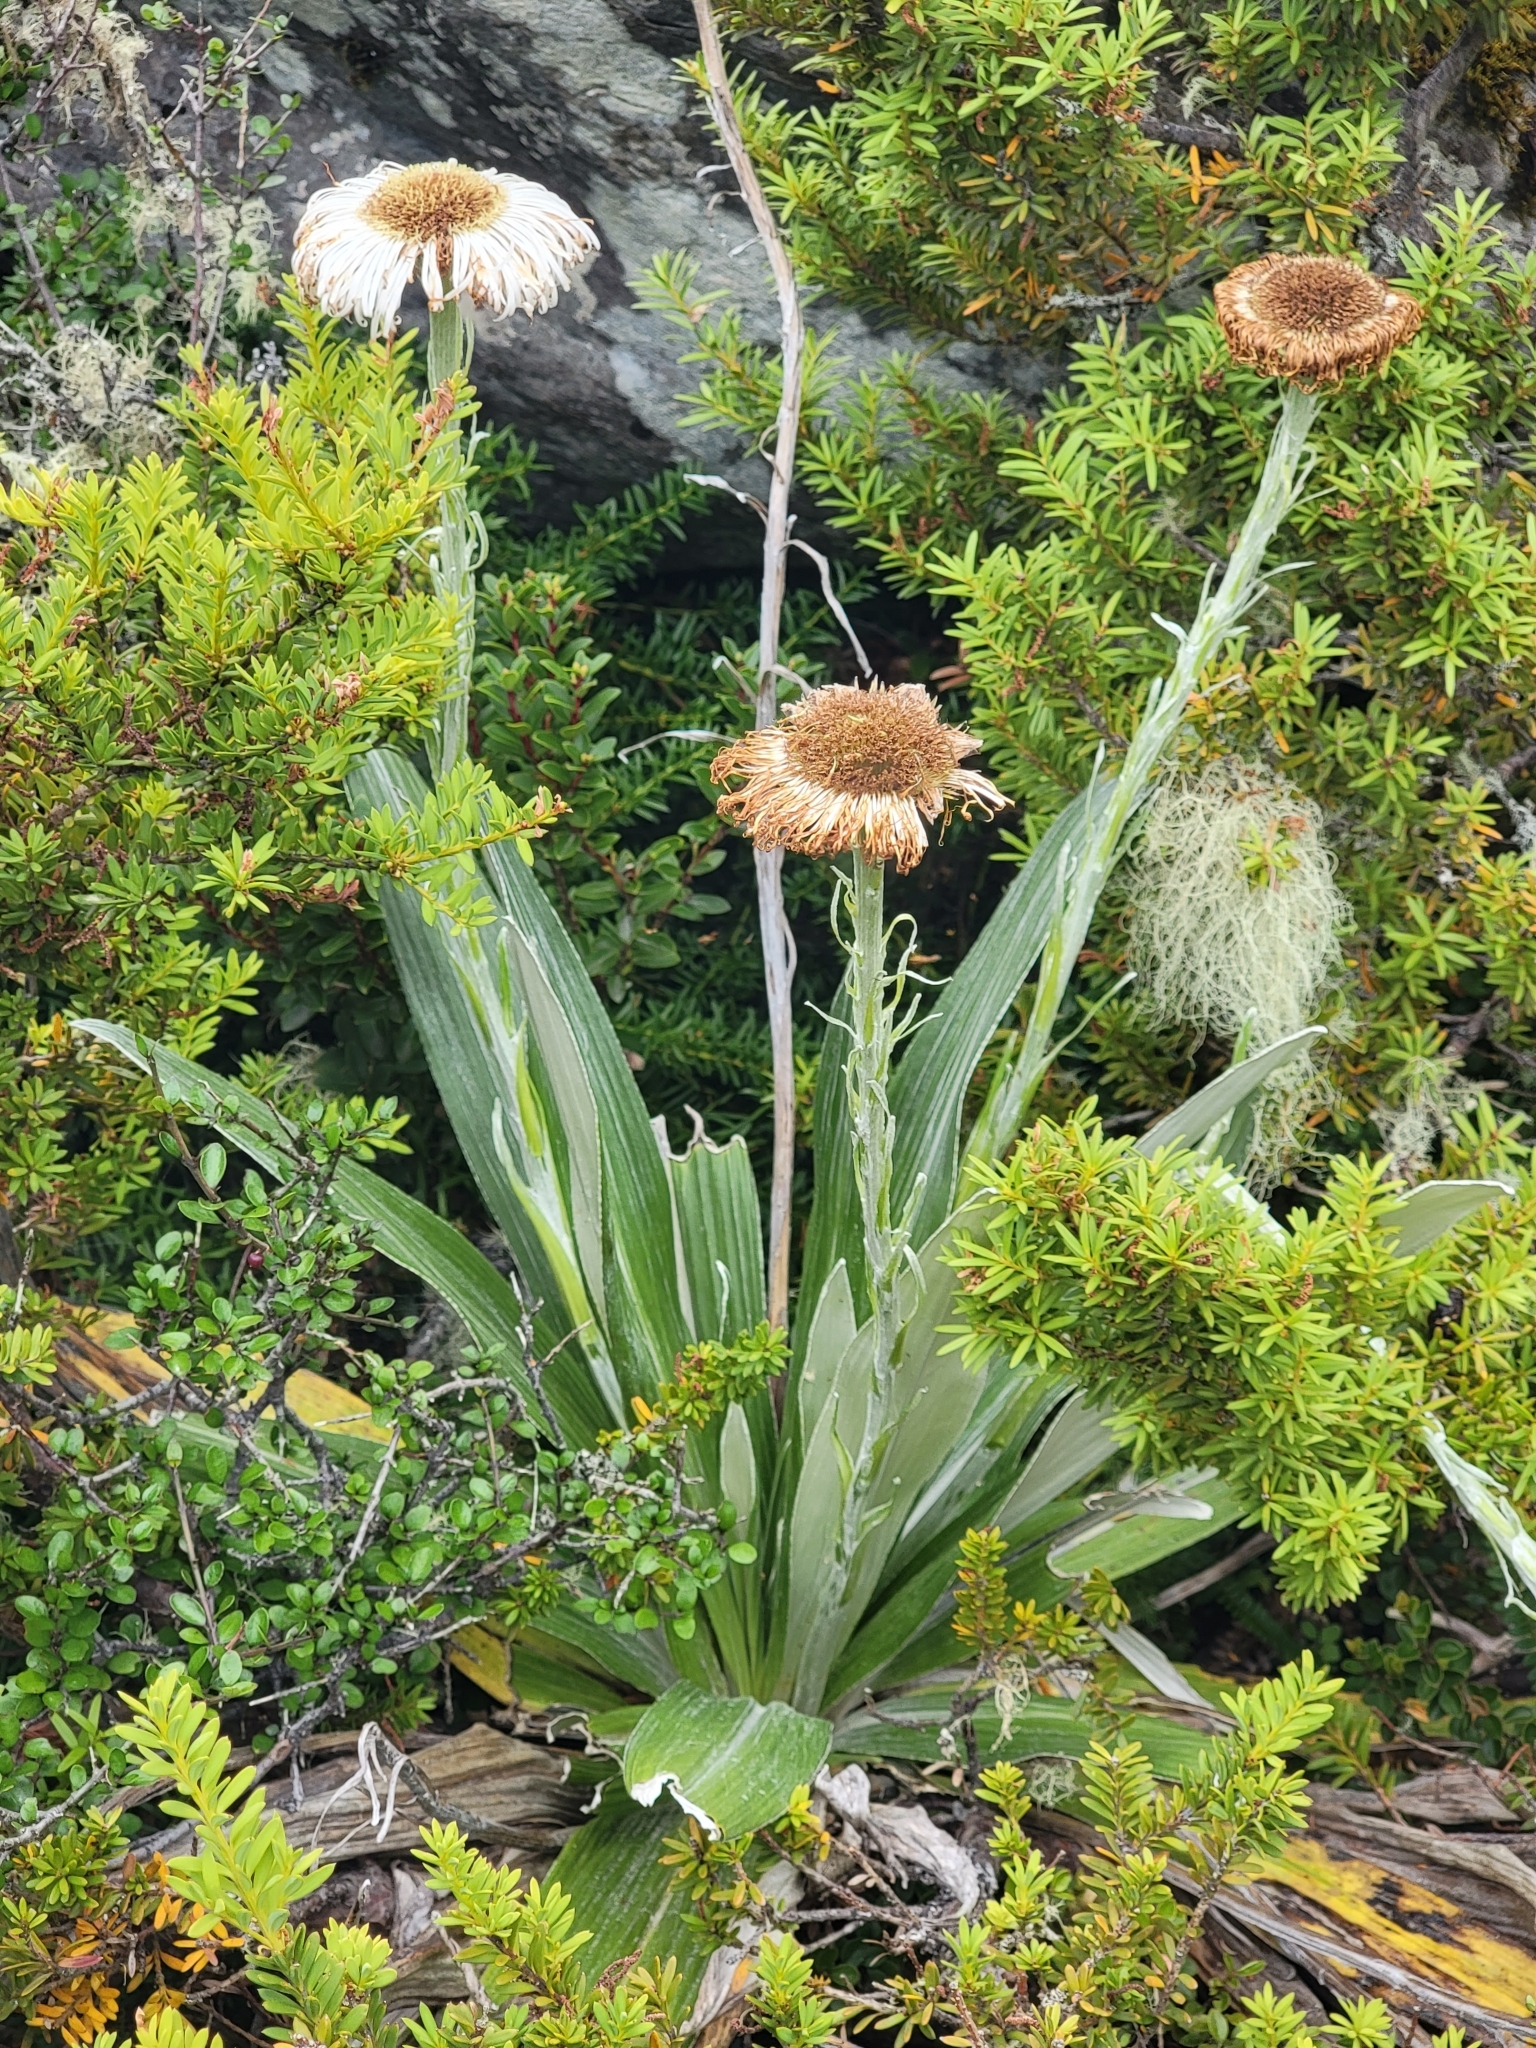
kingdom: Plantae
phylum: Tracheophyta
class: Magnoliopsida
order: Asterales
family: Asteraceae
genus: Celmisia
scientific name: Celmisia semicordata
